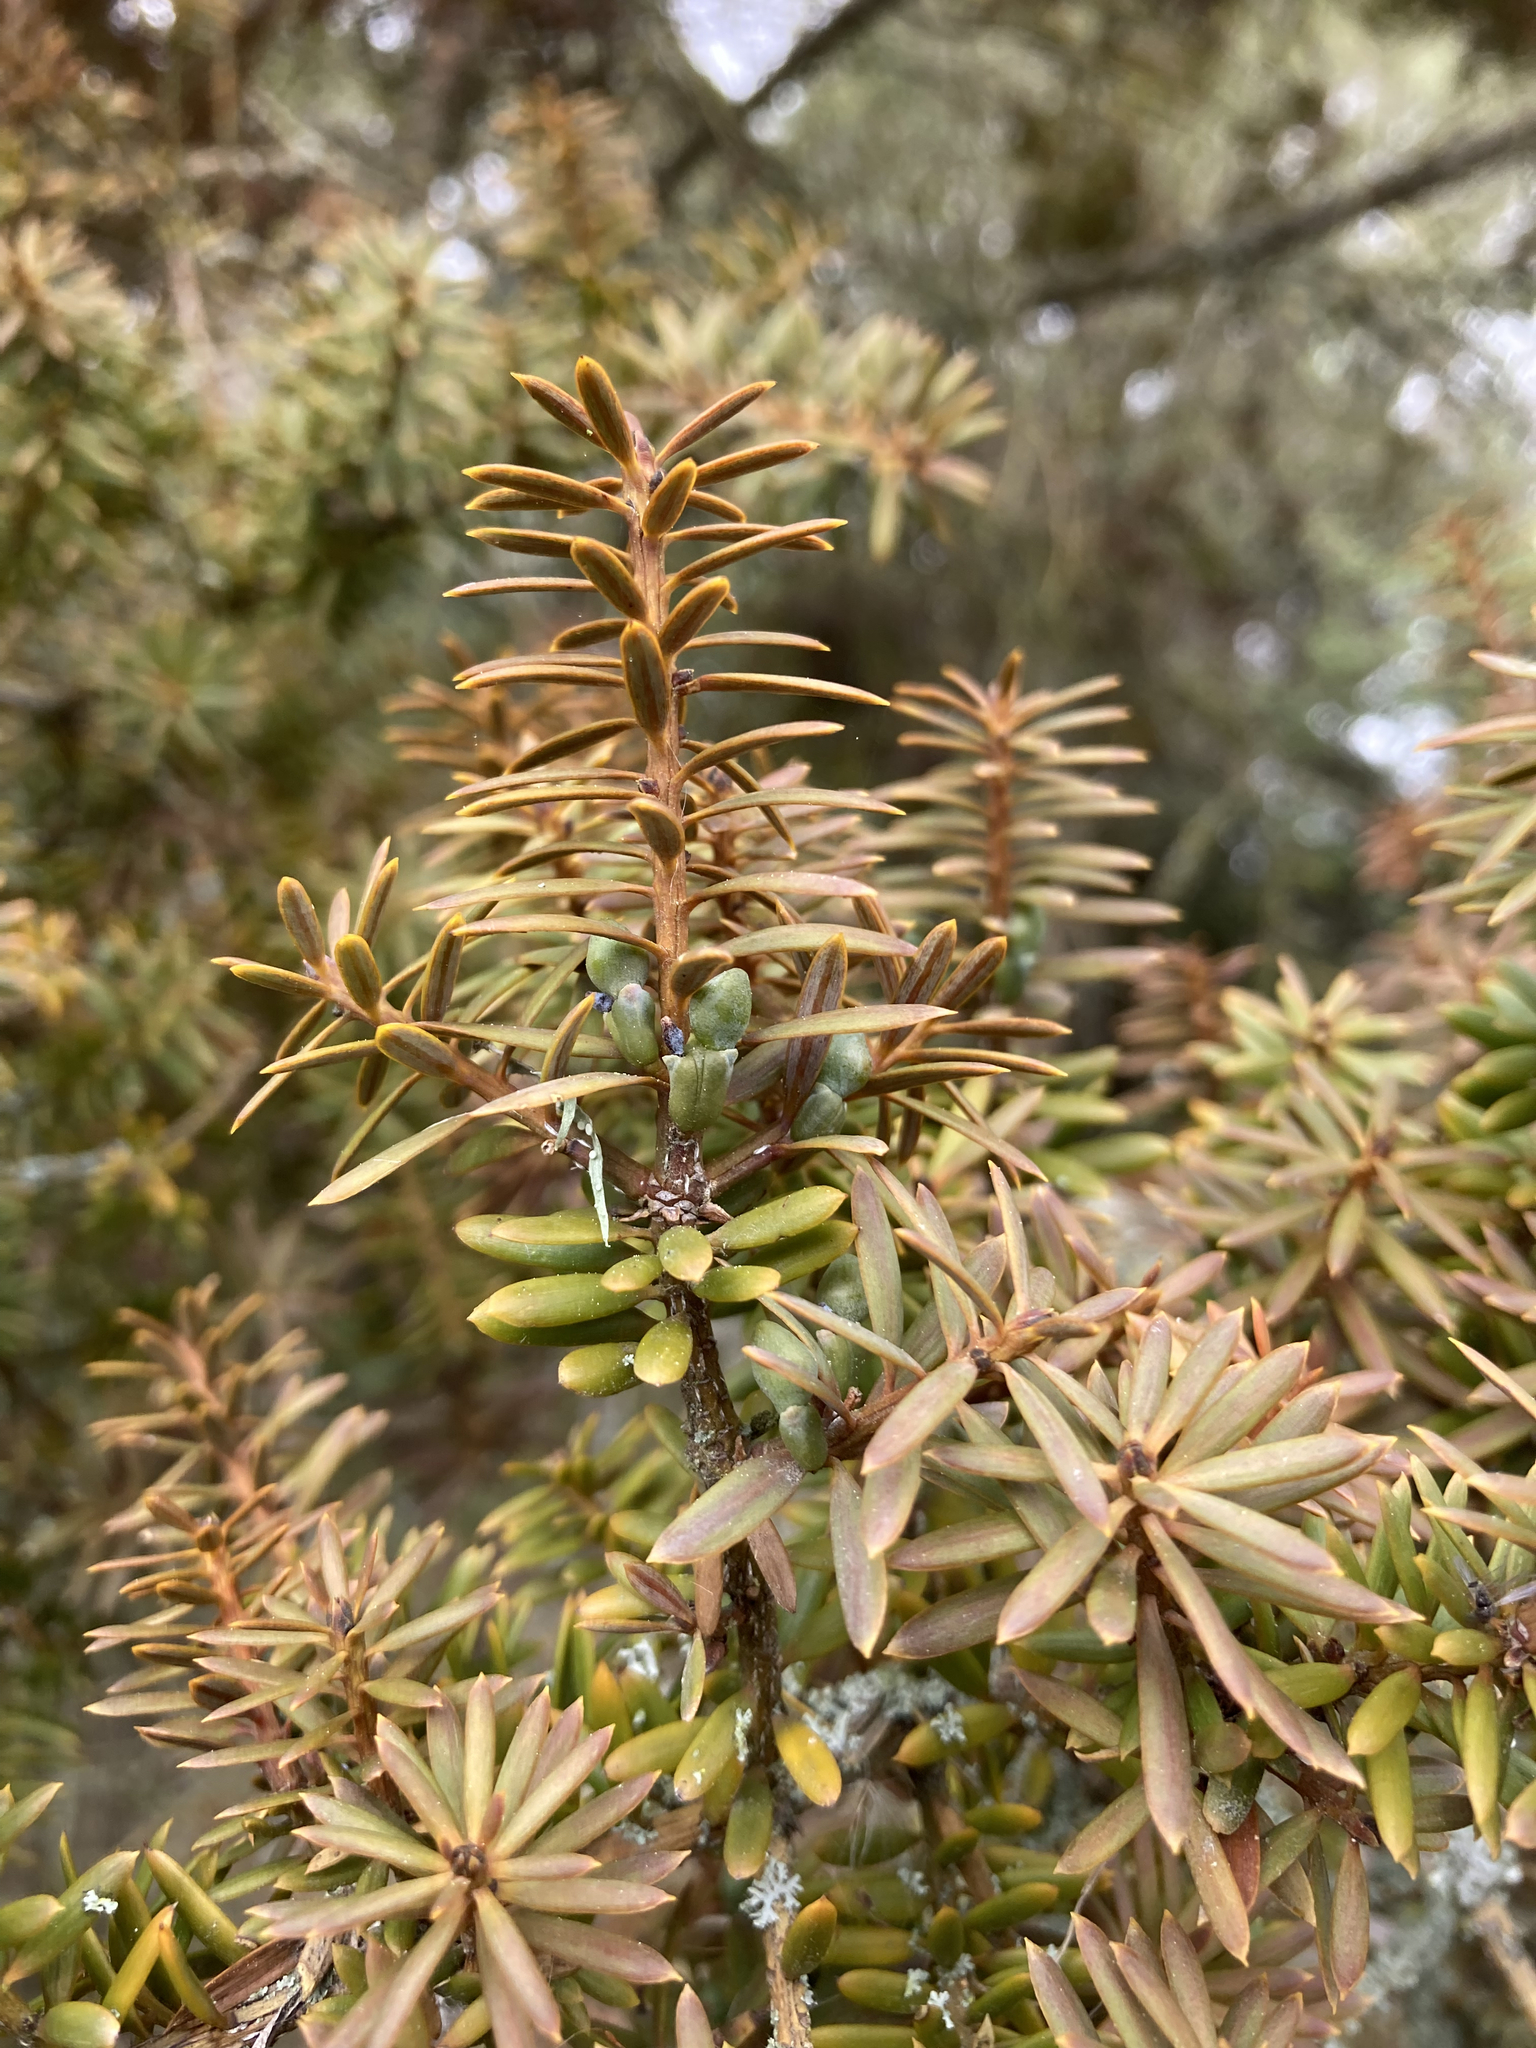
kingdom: Plantae
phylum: Tracheophyta
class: Pinopsida
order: Pinales
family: Podocarpaceae
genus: Podocarpus
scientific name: Podocarpus totara
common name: Totara
